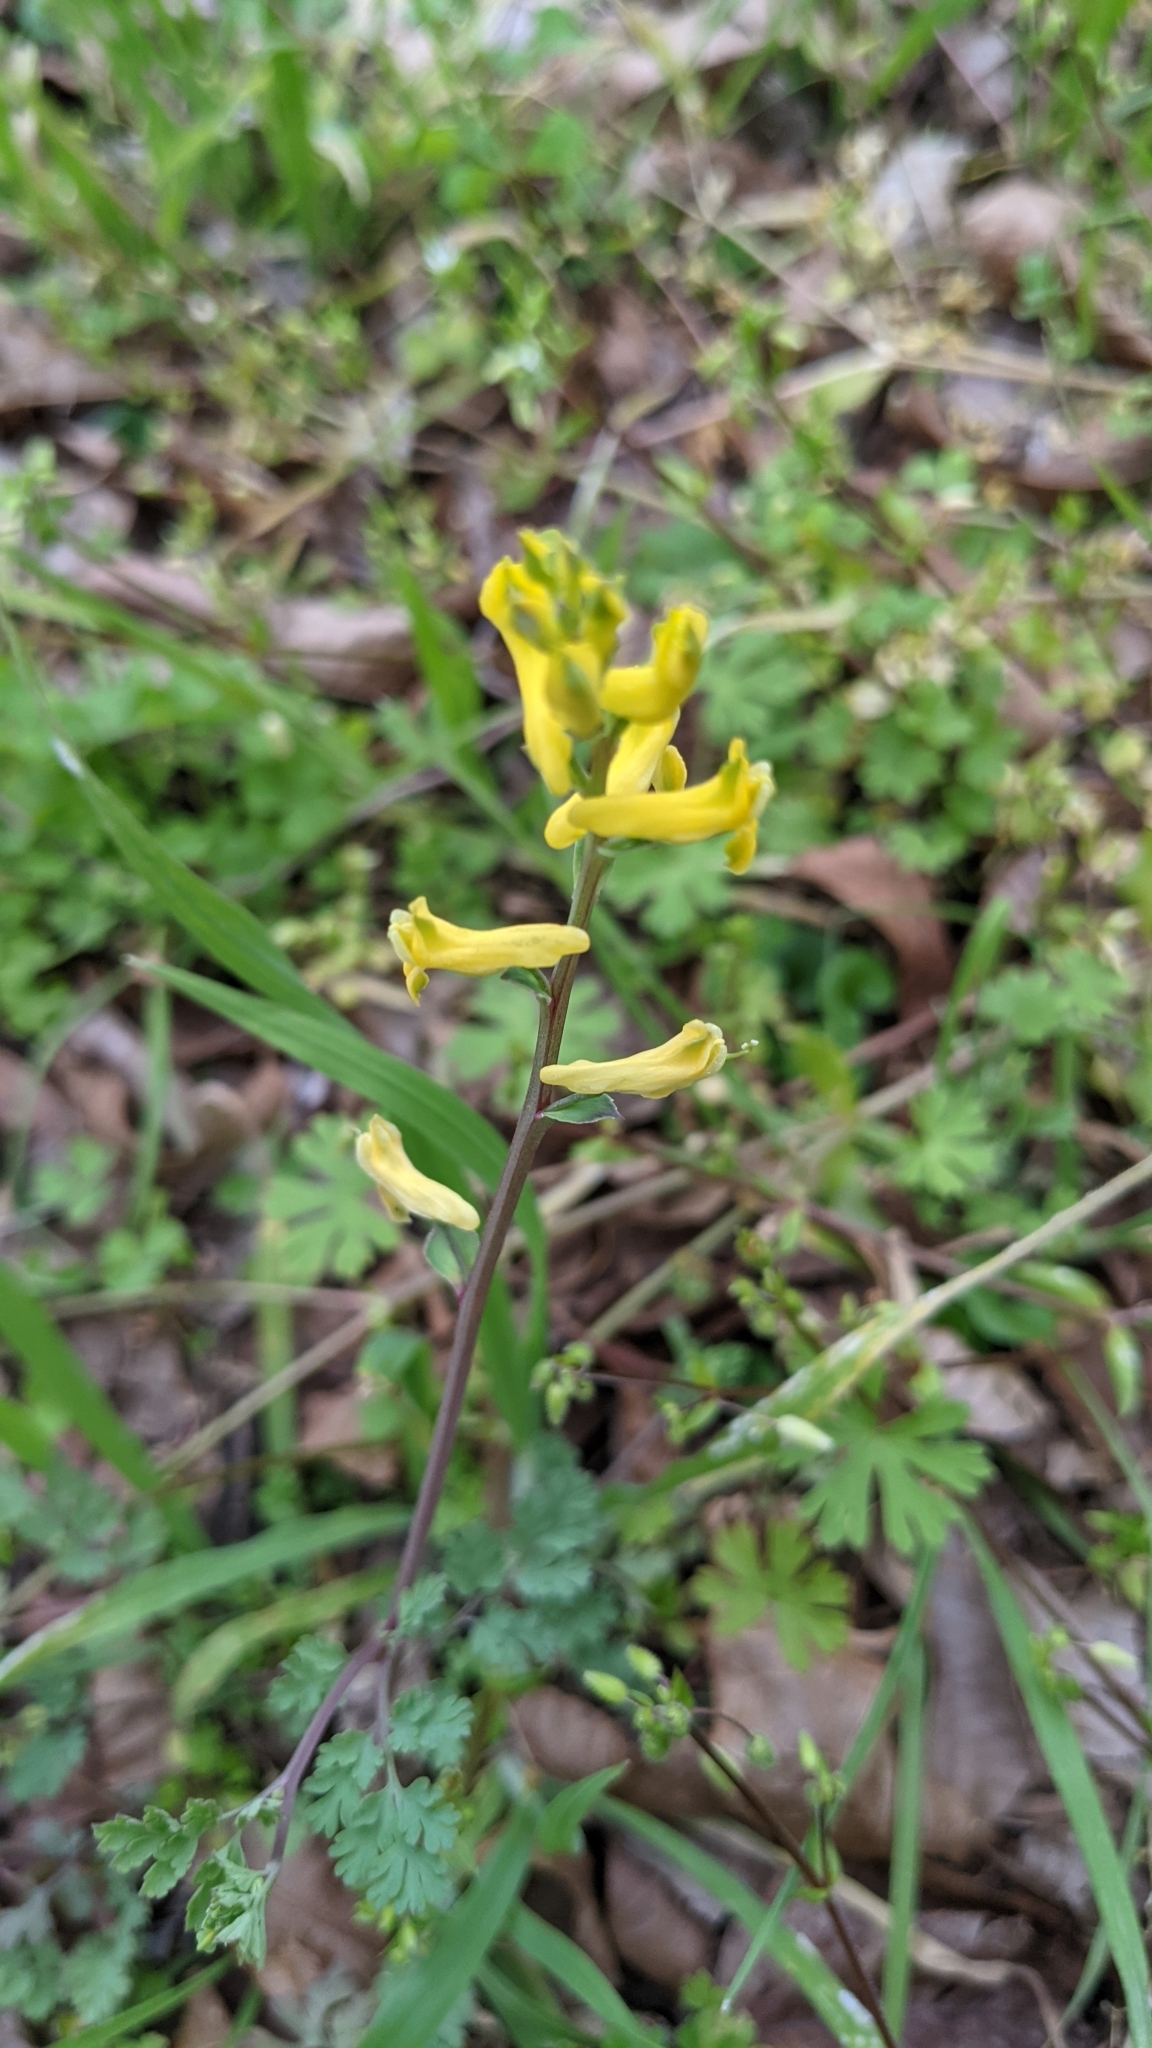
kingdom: Plantae
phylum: Tracheophyta
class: Magnoliopsida
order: Ranunculales
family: Papaveraceae
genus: Corydalis
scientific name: Corydalis micrantha
